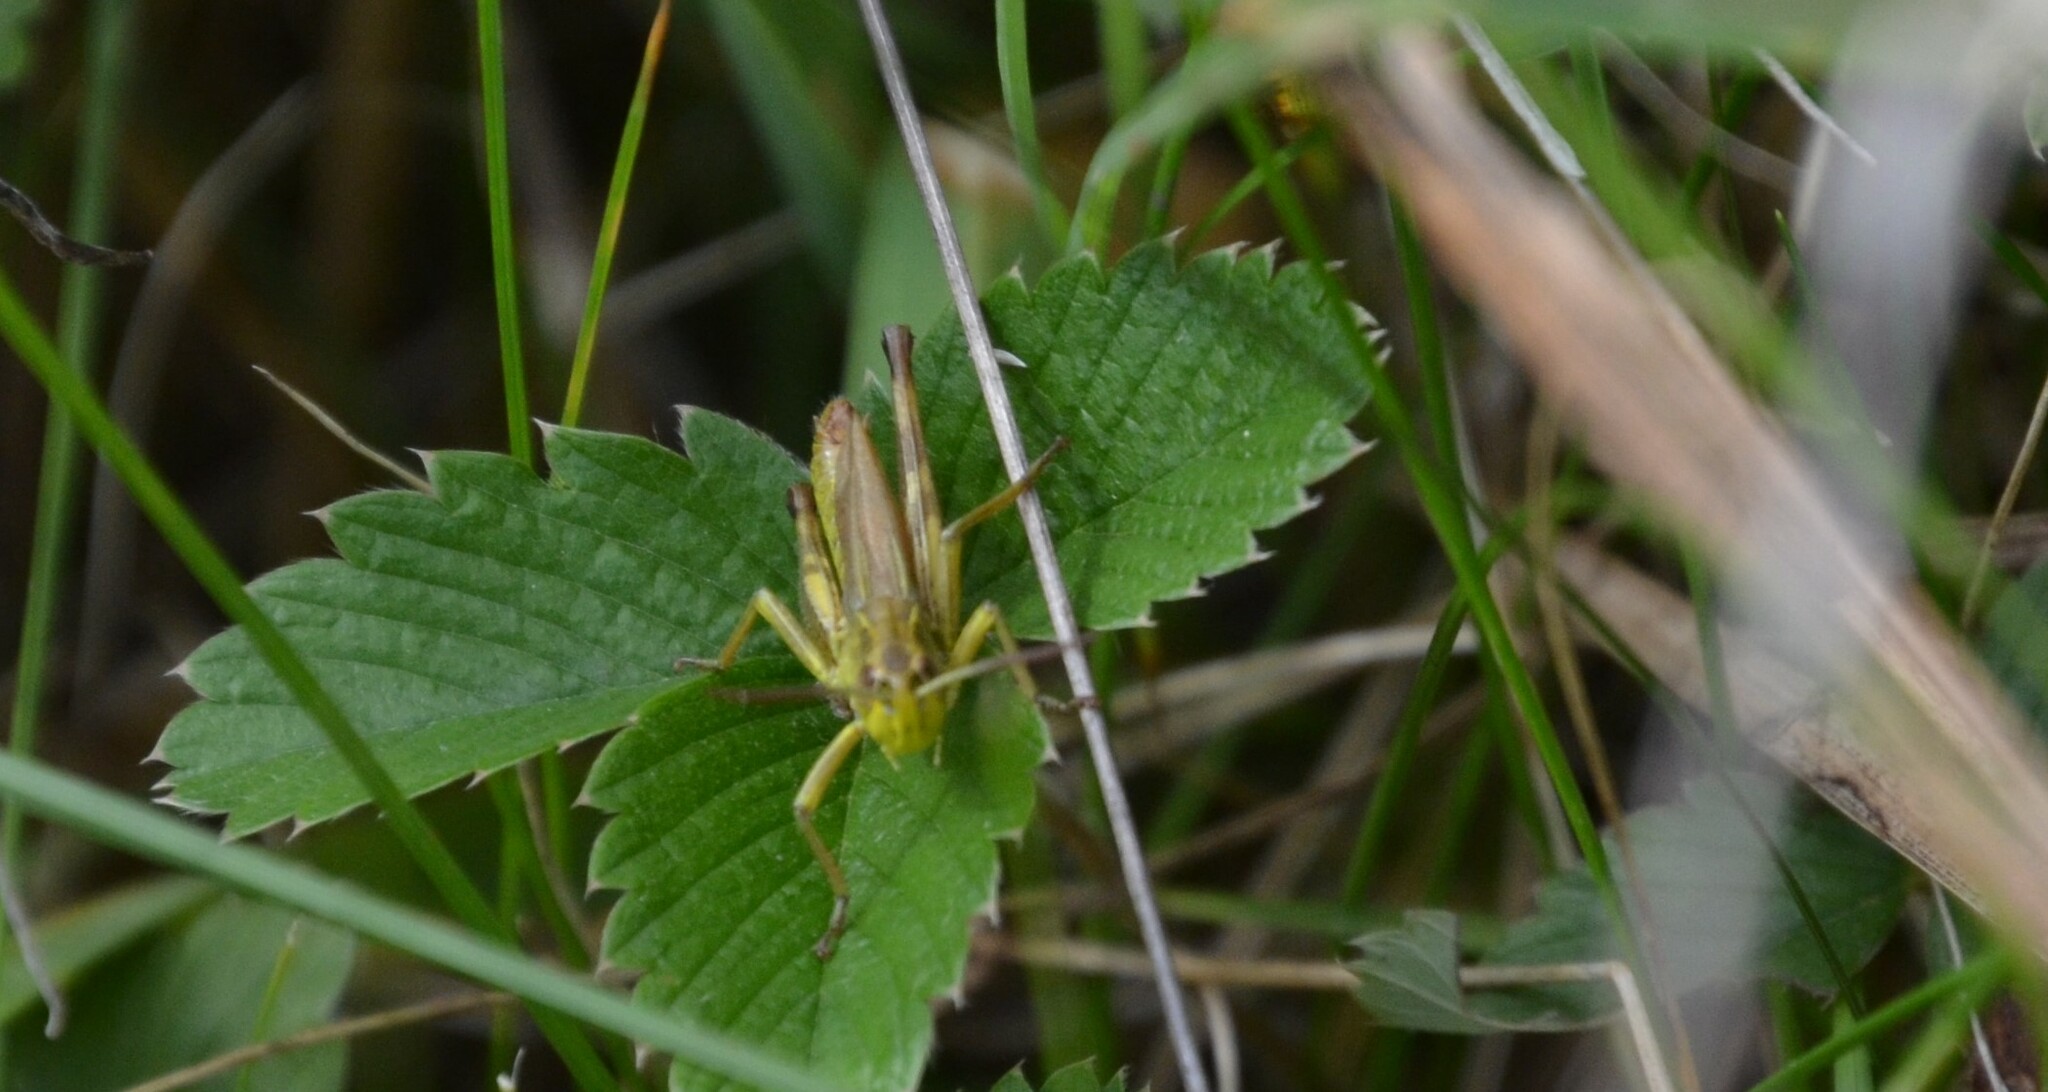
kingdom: Animalia
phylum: Arthropoda
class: Insecta
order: Orthoptera
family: Acrididae
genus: Pseudochorthippus
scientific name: Pseudochorthippus parallelus
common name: Meadow grasshopper
